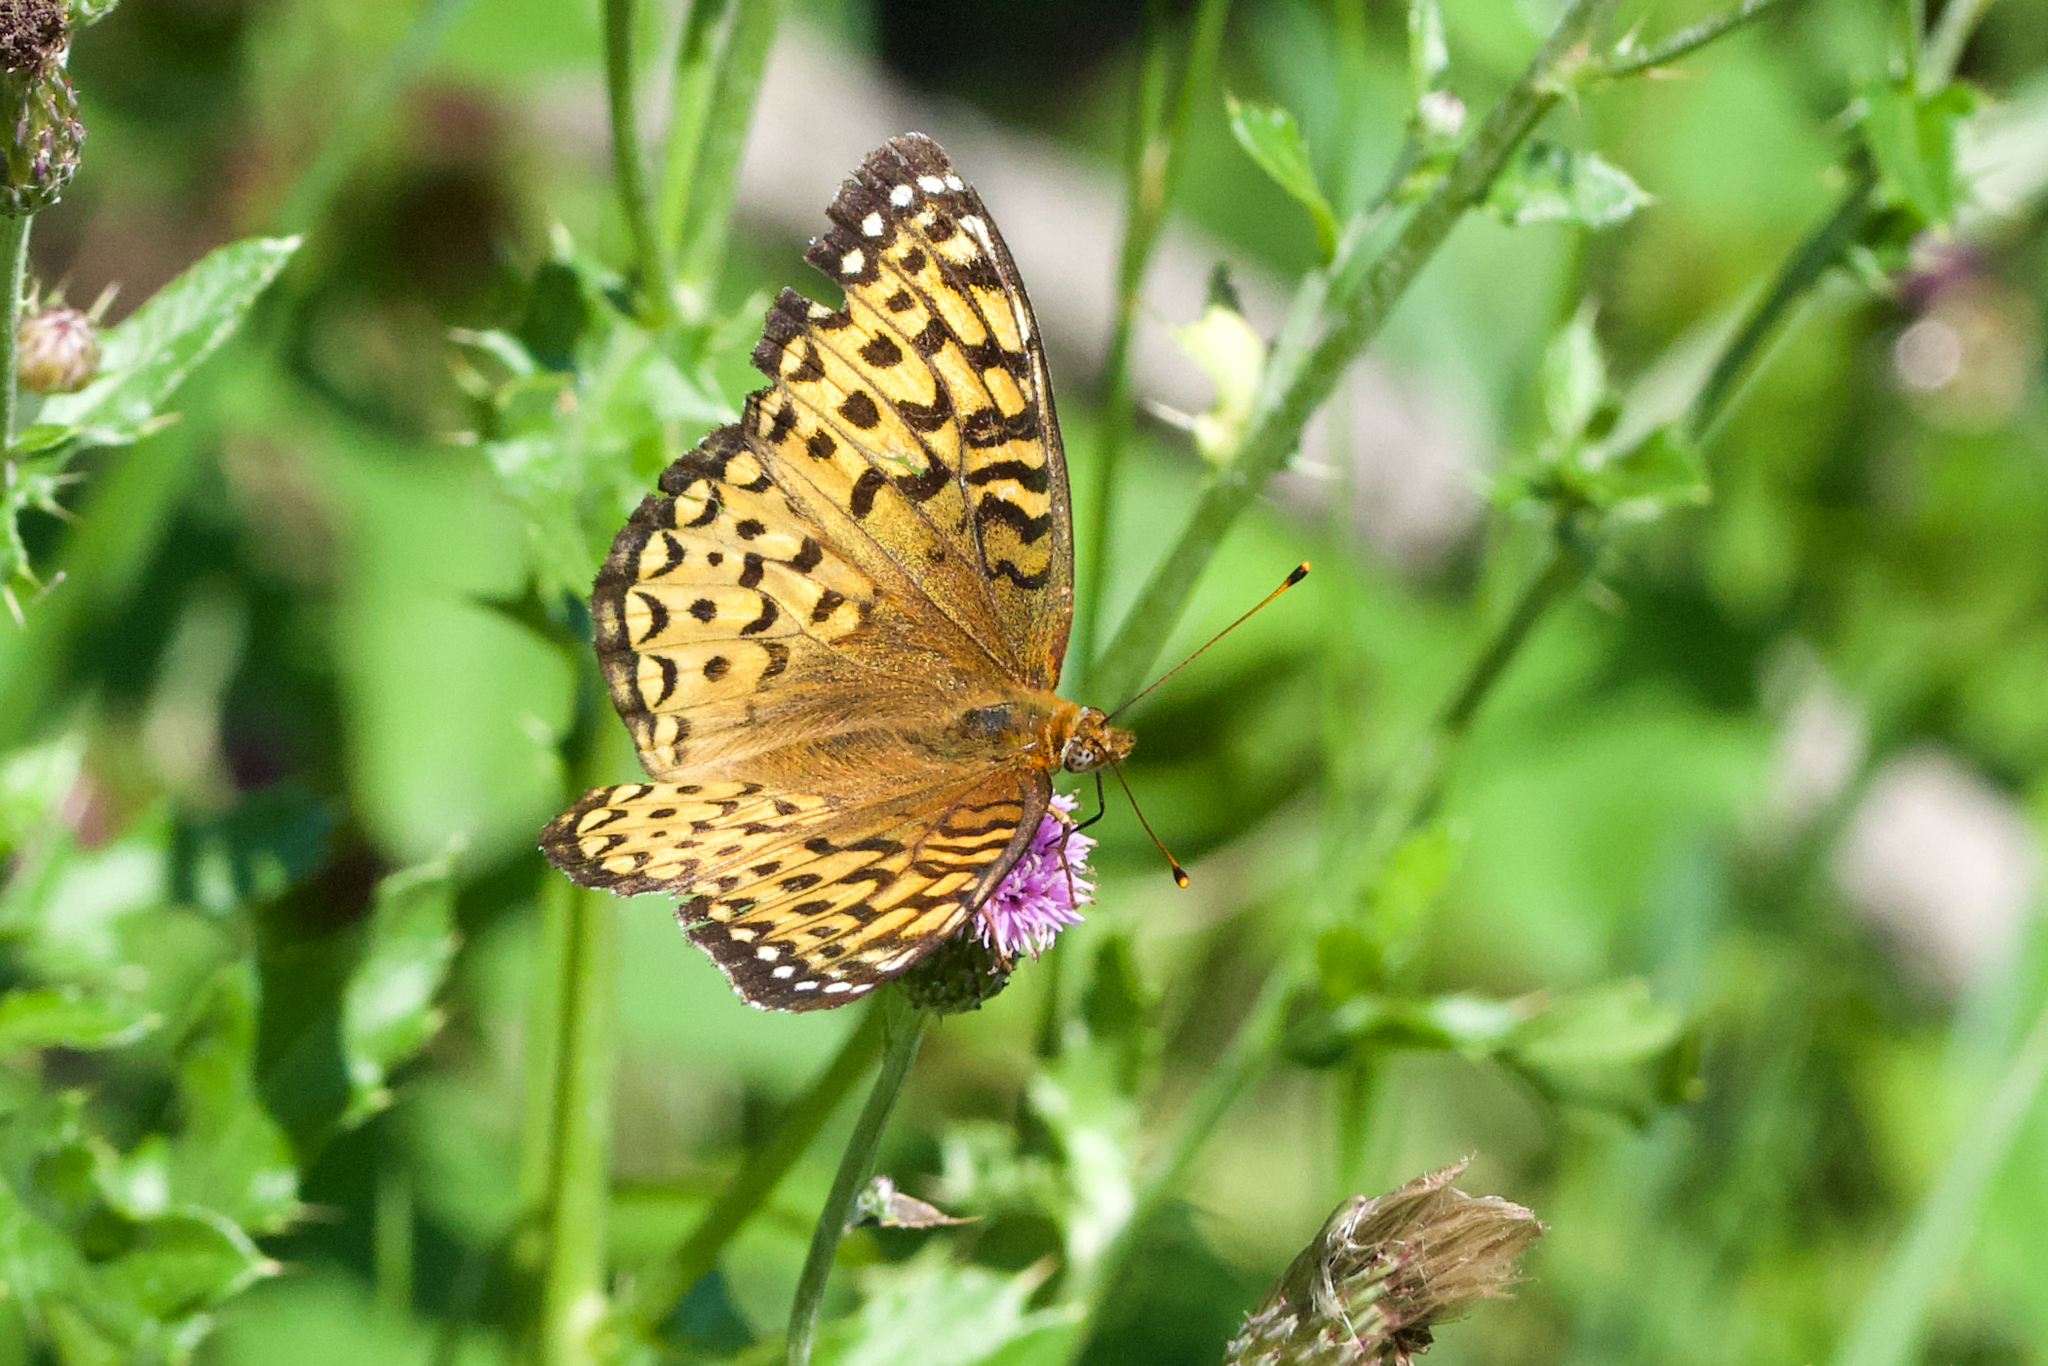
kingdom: Animalia
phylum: Arthropoda
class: Insecta
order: Lepidoptera
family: Nymphalidae
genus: Speyeria
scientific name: Speyeria atlantis
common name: Atlantis fritillary
